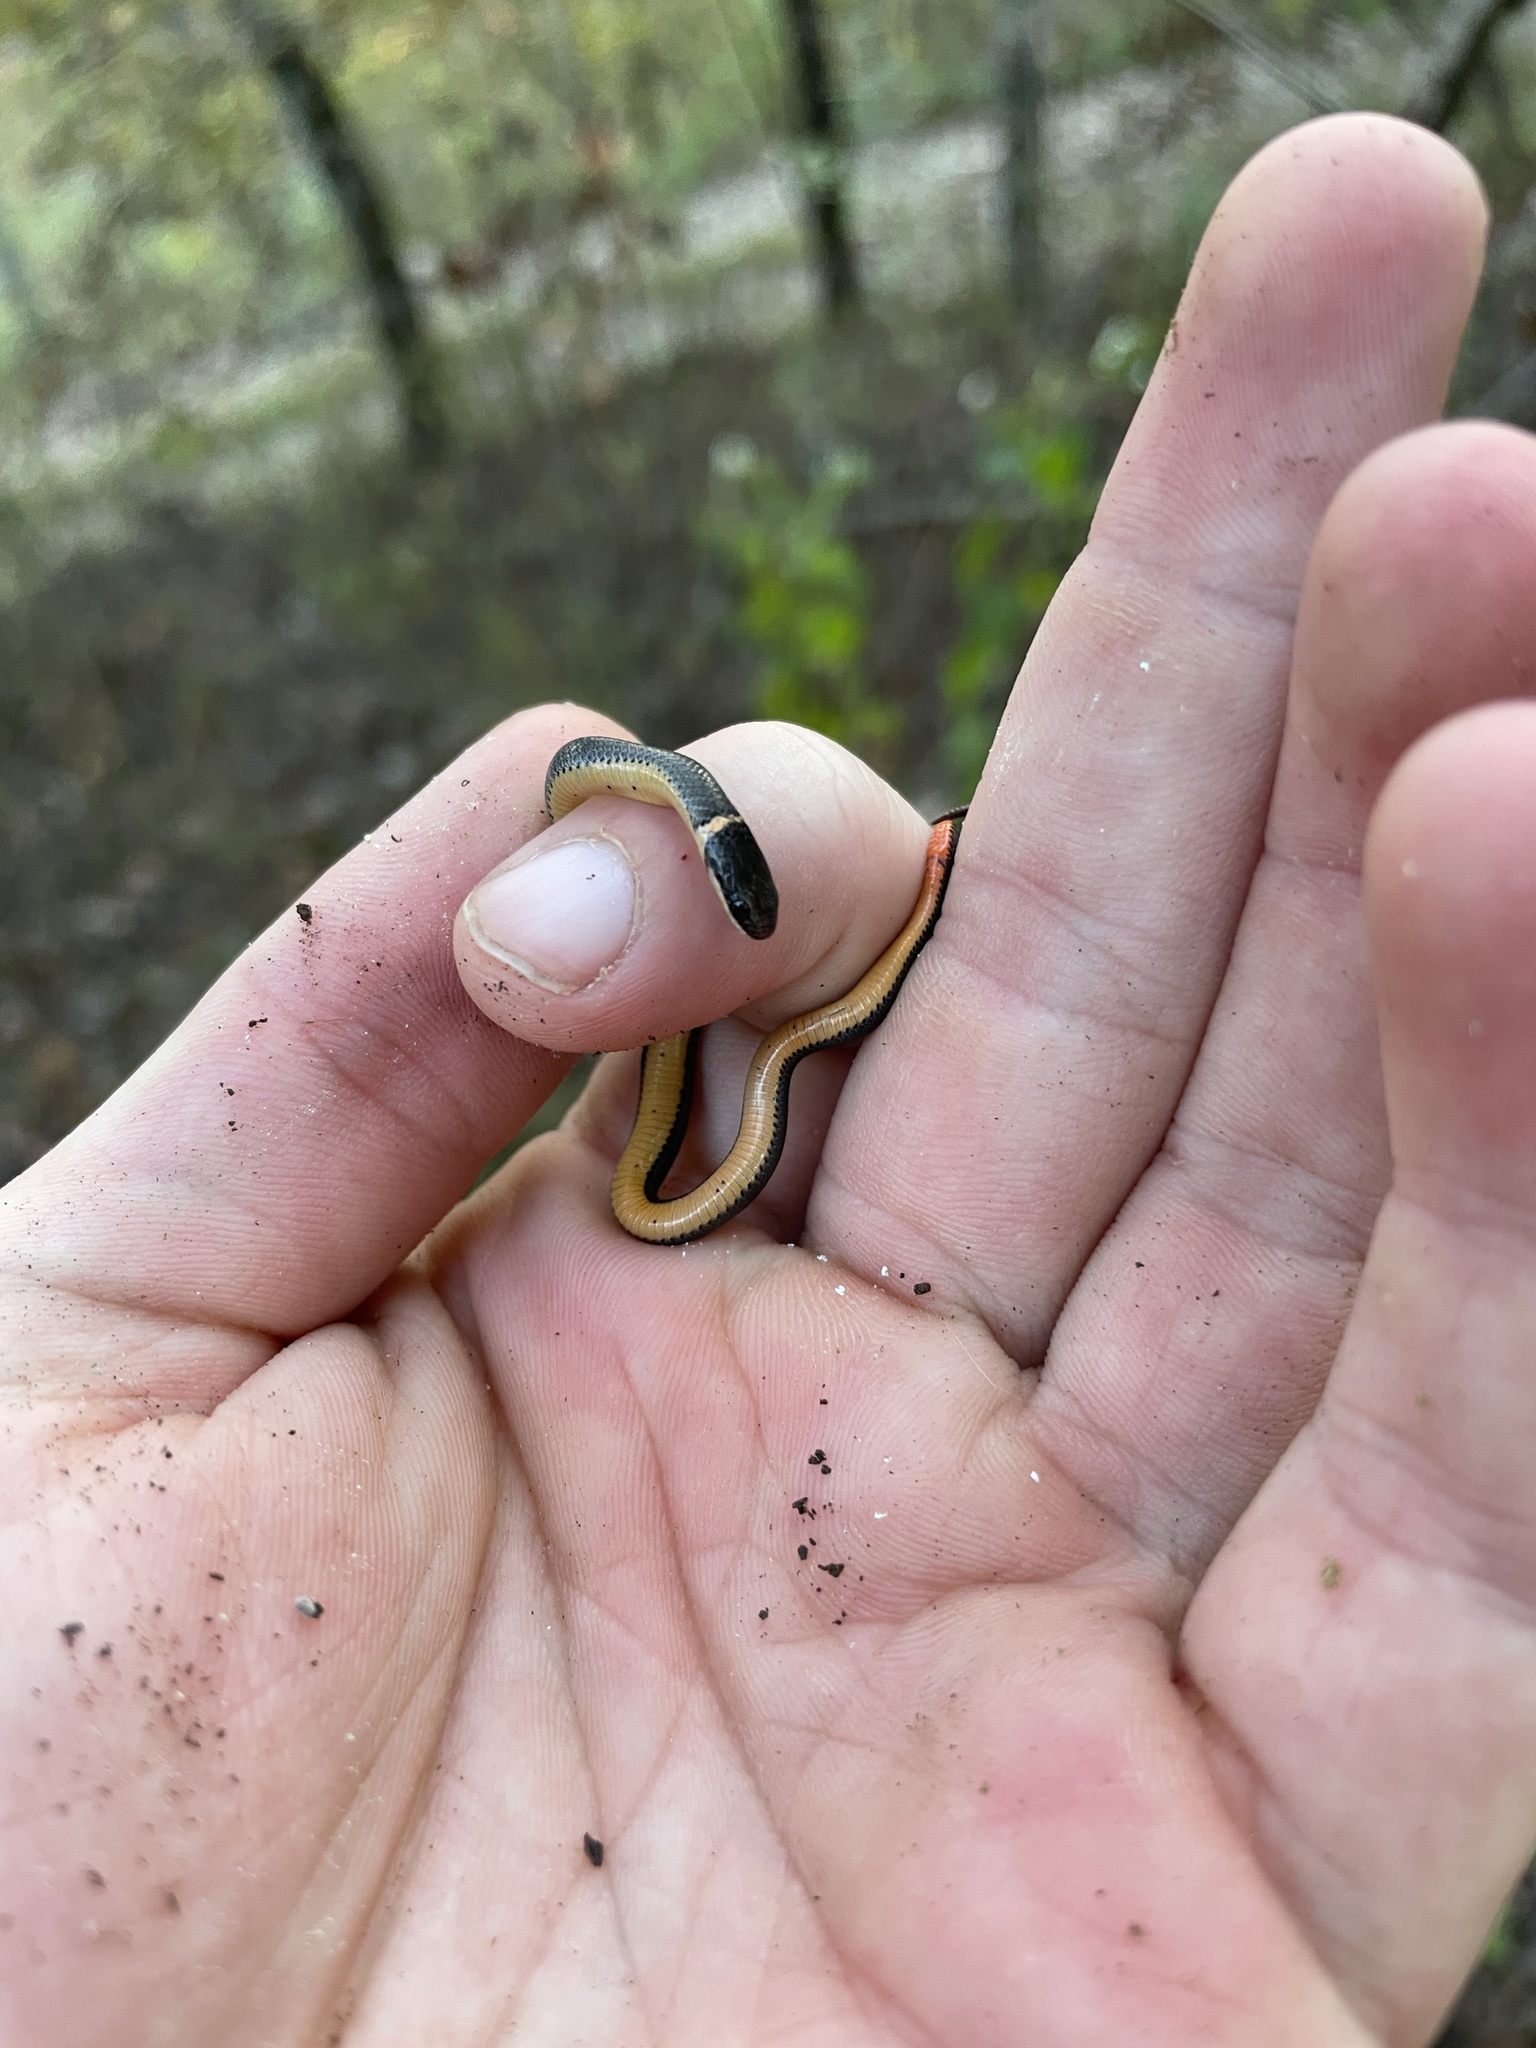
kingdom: Animalia
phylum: Chordata
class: Squamata
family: Colubridae
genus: Diadophis
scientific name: Diadophis punctatus
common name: Ringneck snake
